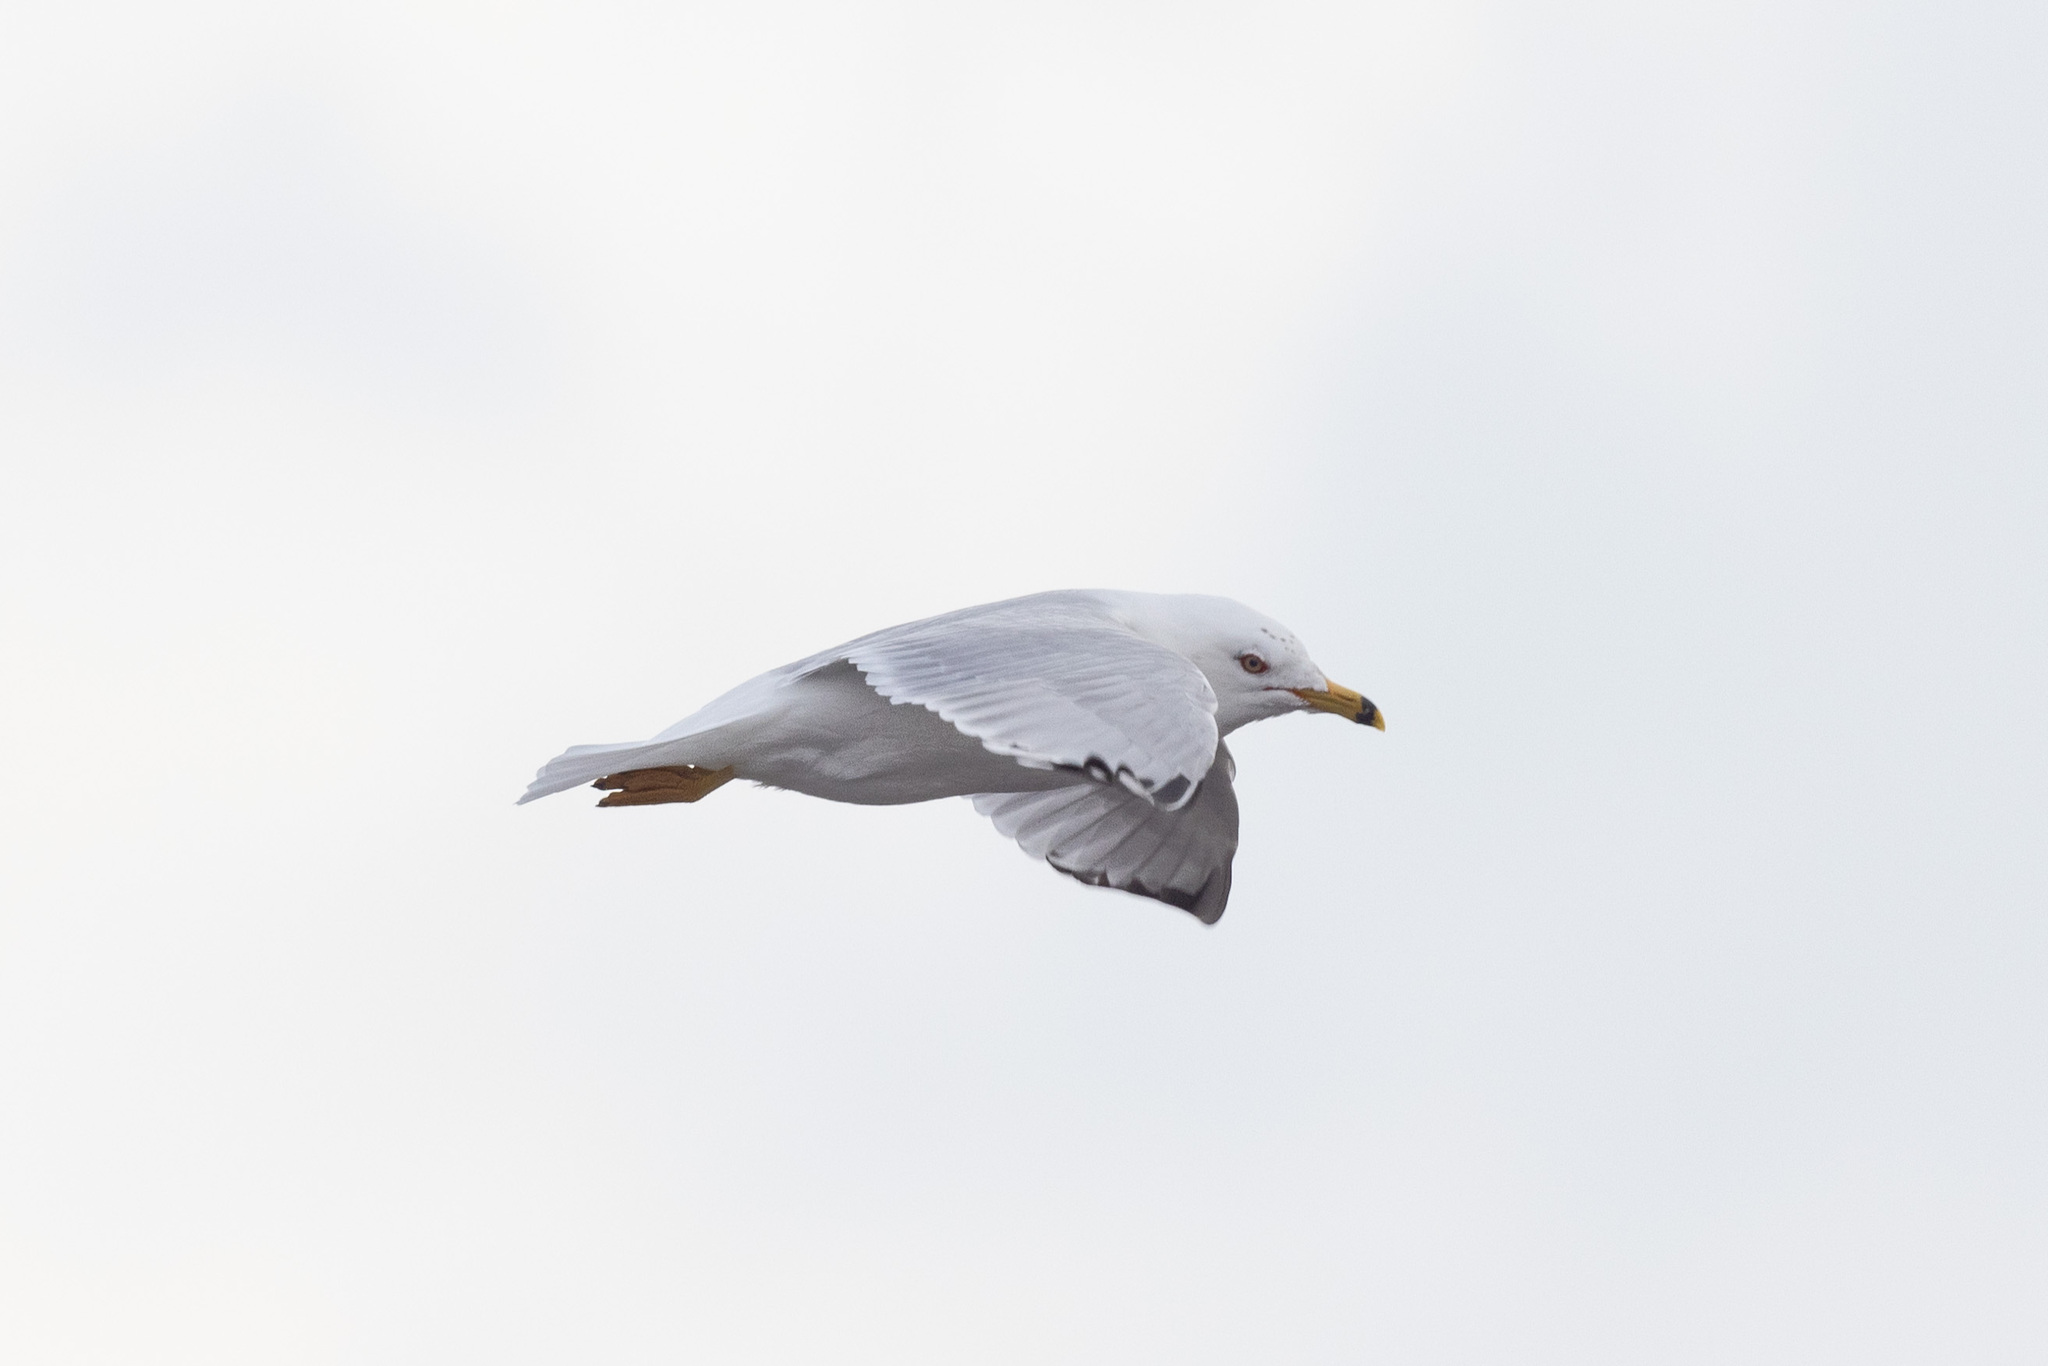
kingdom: Animalia
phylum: Chordata
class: Aves
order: Charadriiformes
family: Laridae
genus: Larus
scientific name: Larus delawarensis
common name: Ring-billed gull
